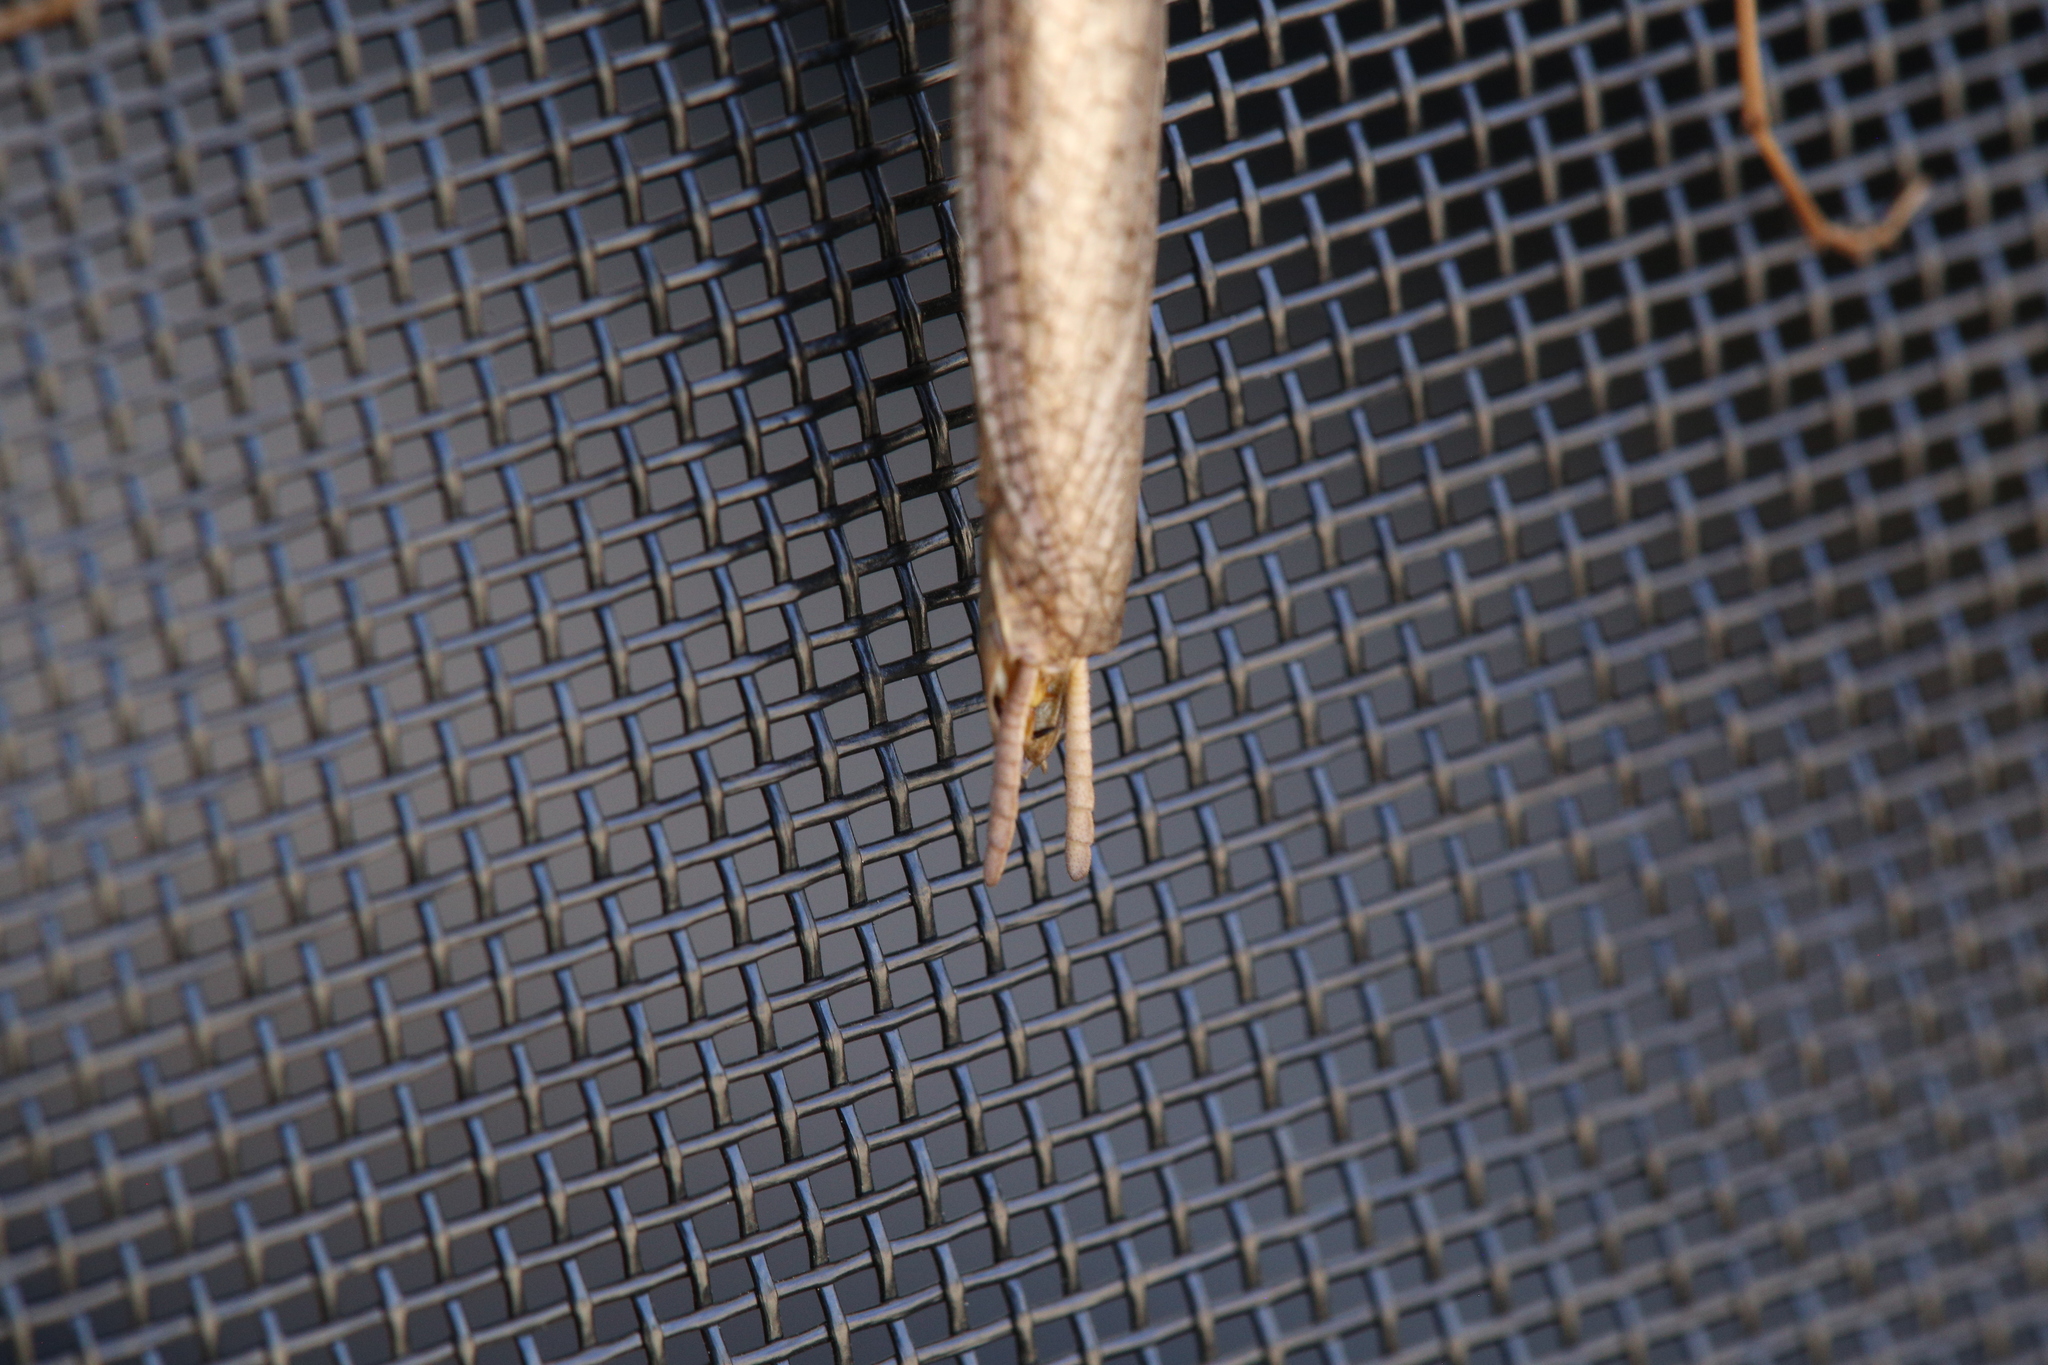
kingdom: Animalia
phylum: Arthropoda
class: Insecta
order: Mantodea
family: Mantidae
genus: Archimantis
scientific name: Archimantis sobrina
